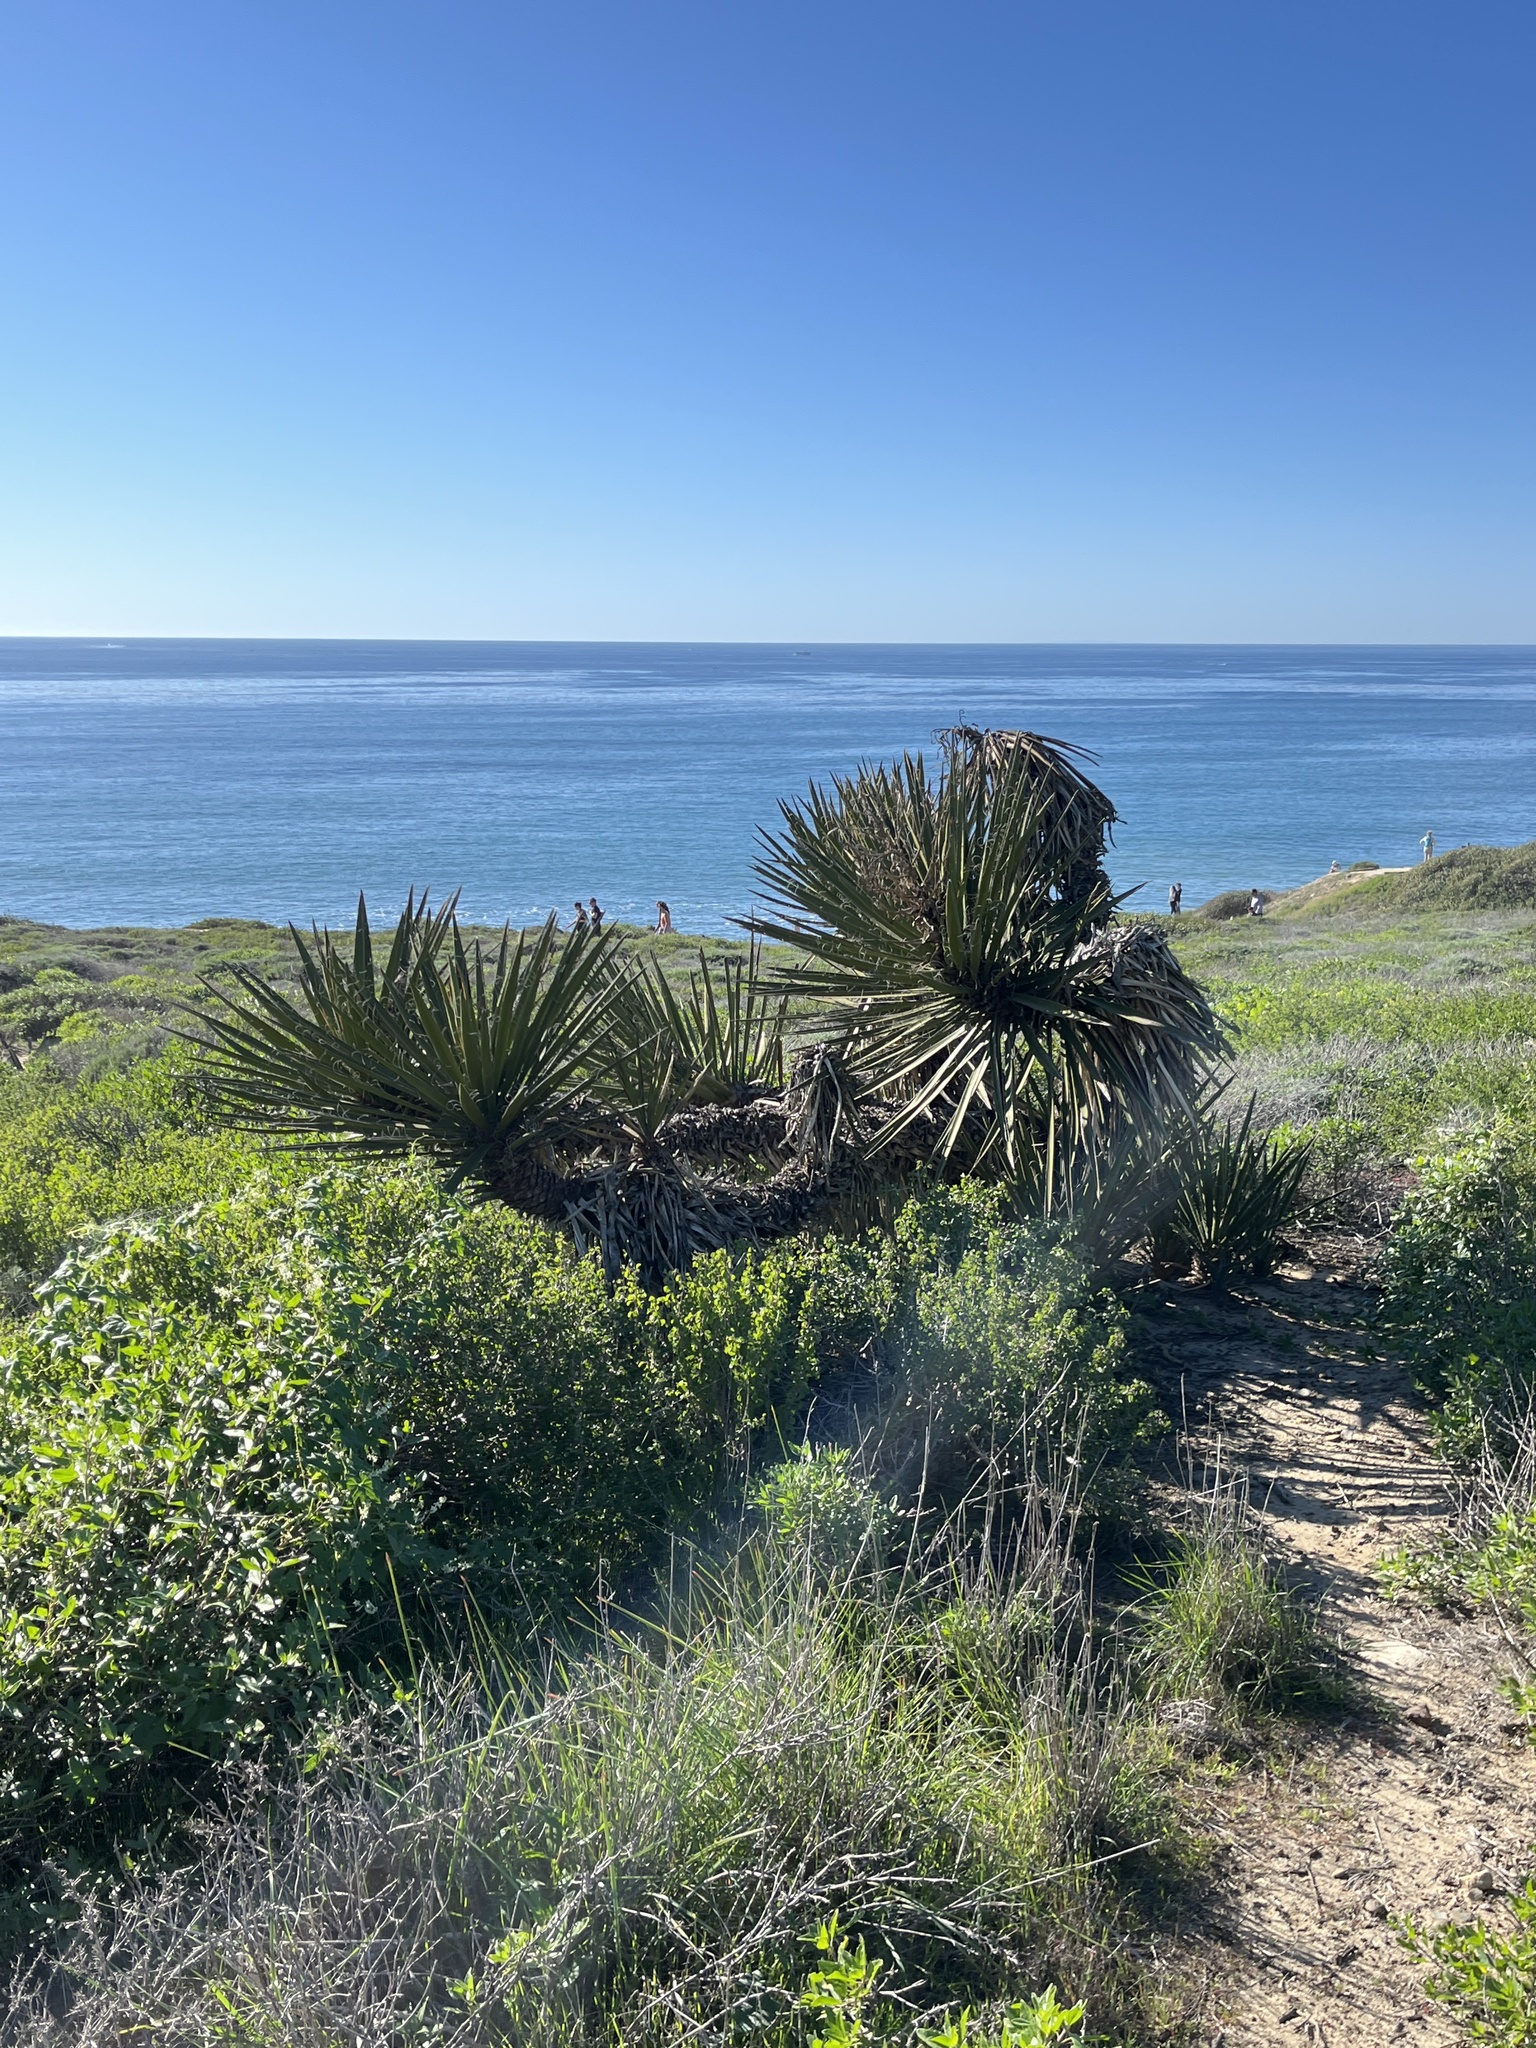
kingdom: Plantae
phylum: Tracheophyta
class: Liliopsida
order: Asparagales
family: Asparagaceae
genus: Yucca
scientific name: Yucca schidigera
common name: Mojave yucca
